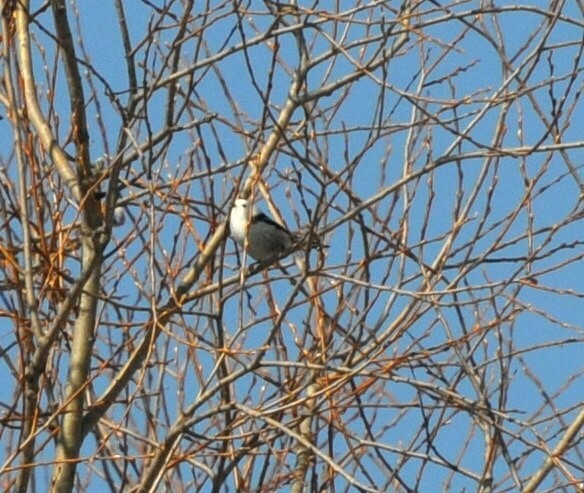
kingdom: Animalia
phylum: Chordata
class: Aves
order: Passeriformes
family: Aegithalidae
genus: Aegithalos
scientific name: Aegithalos caudatus
